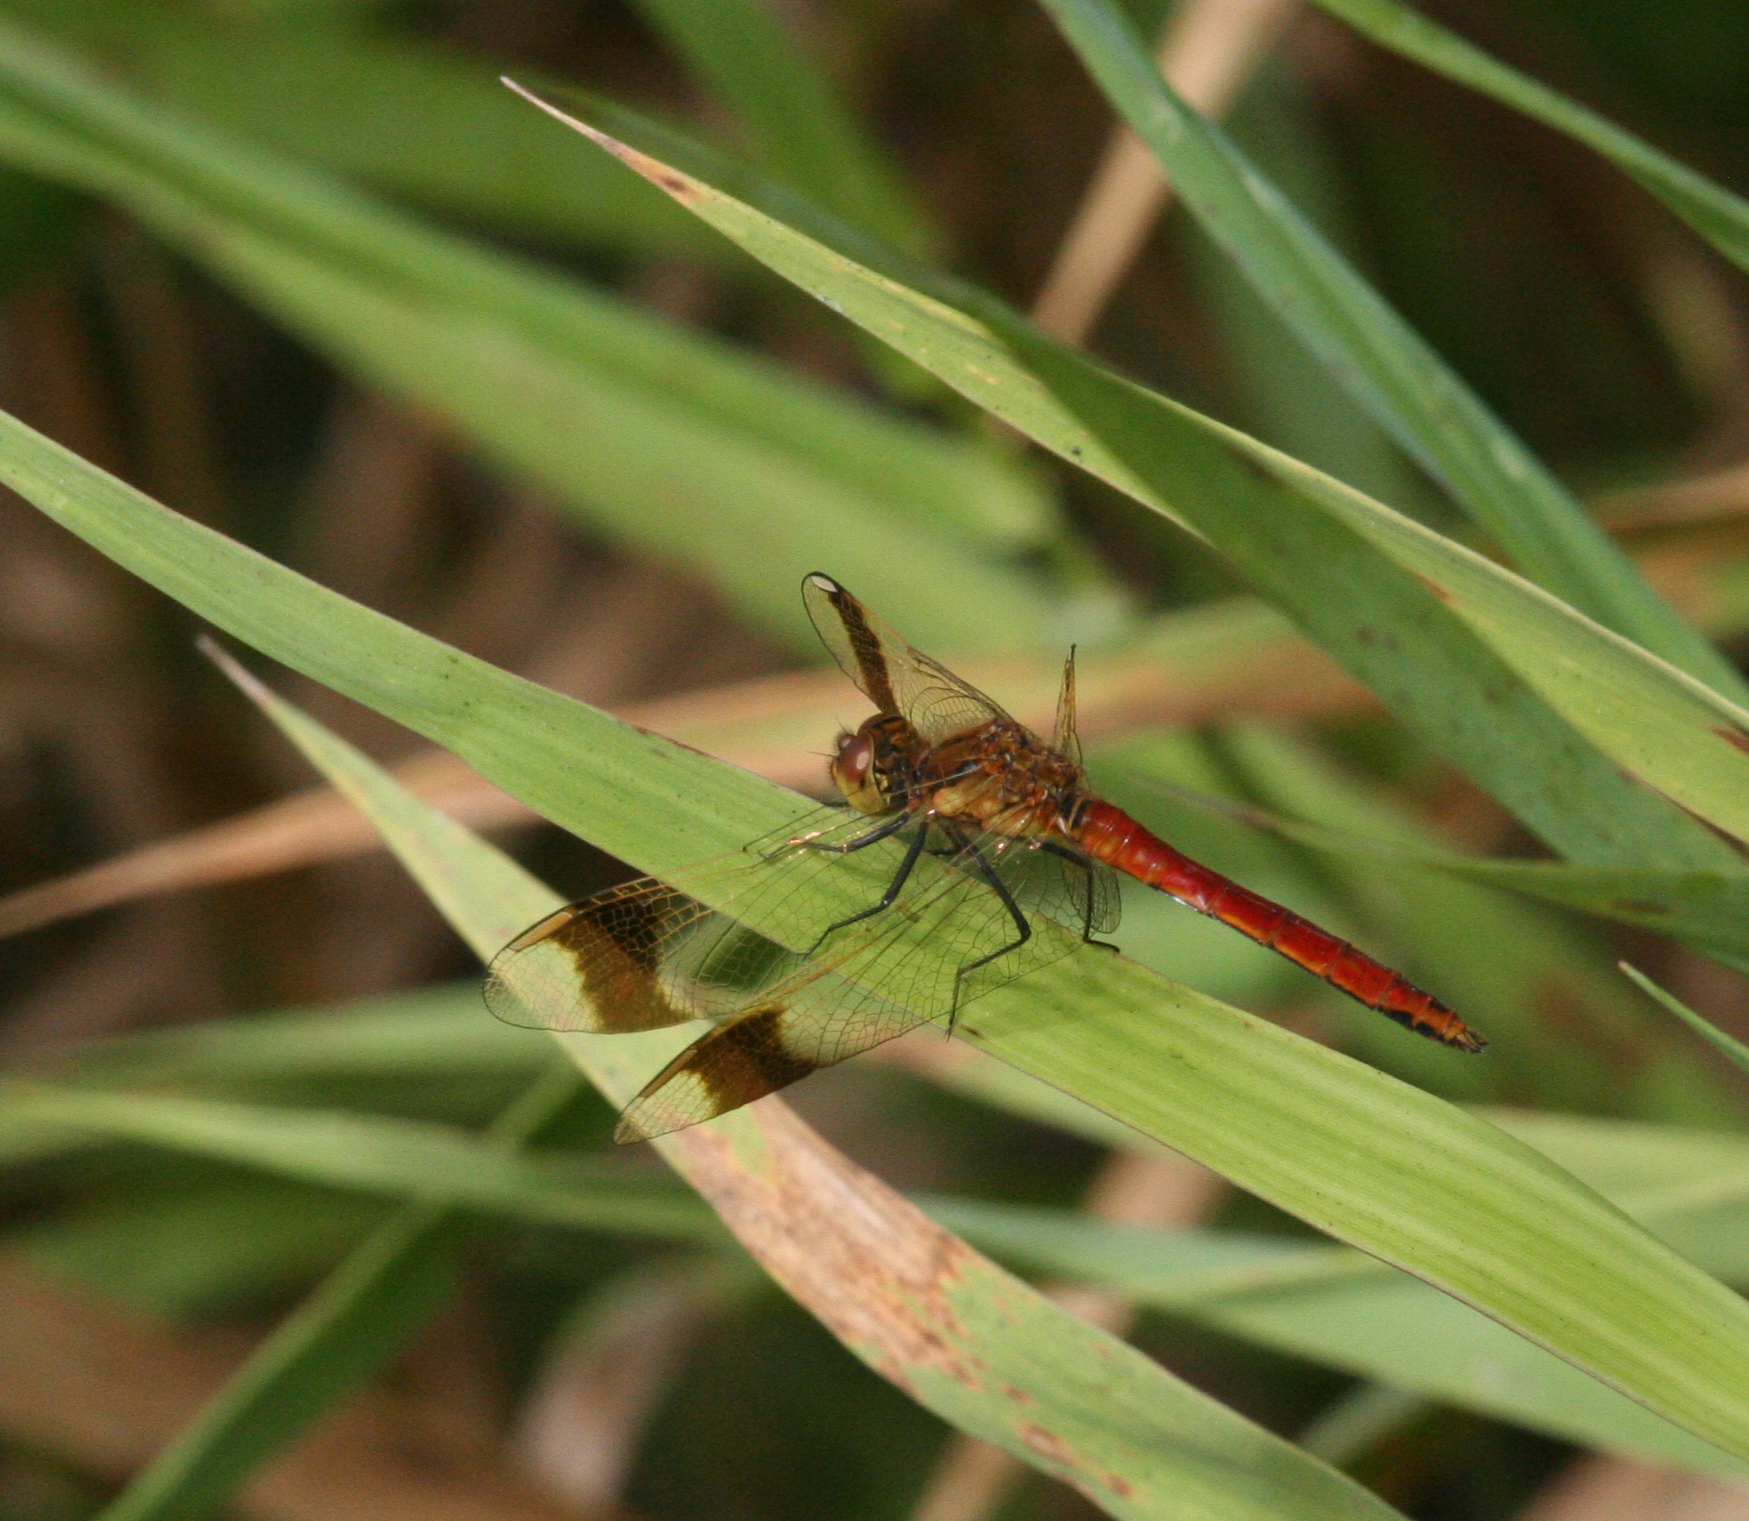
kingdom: Animalia
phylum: Arthropoda
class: Insecta
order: Odonata
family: Libellulidae
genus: Sympetrum
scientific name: Sympetrum pedemontanum
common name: Banded darter
